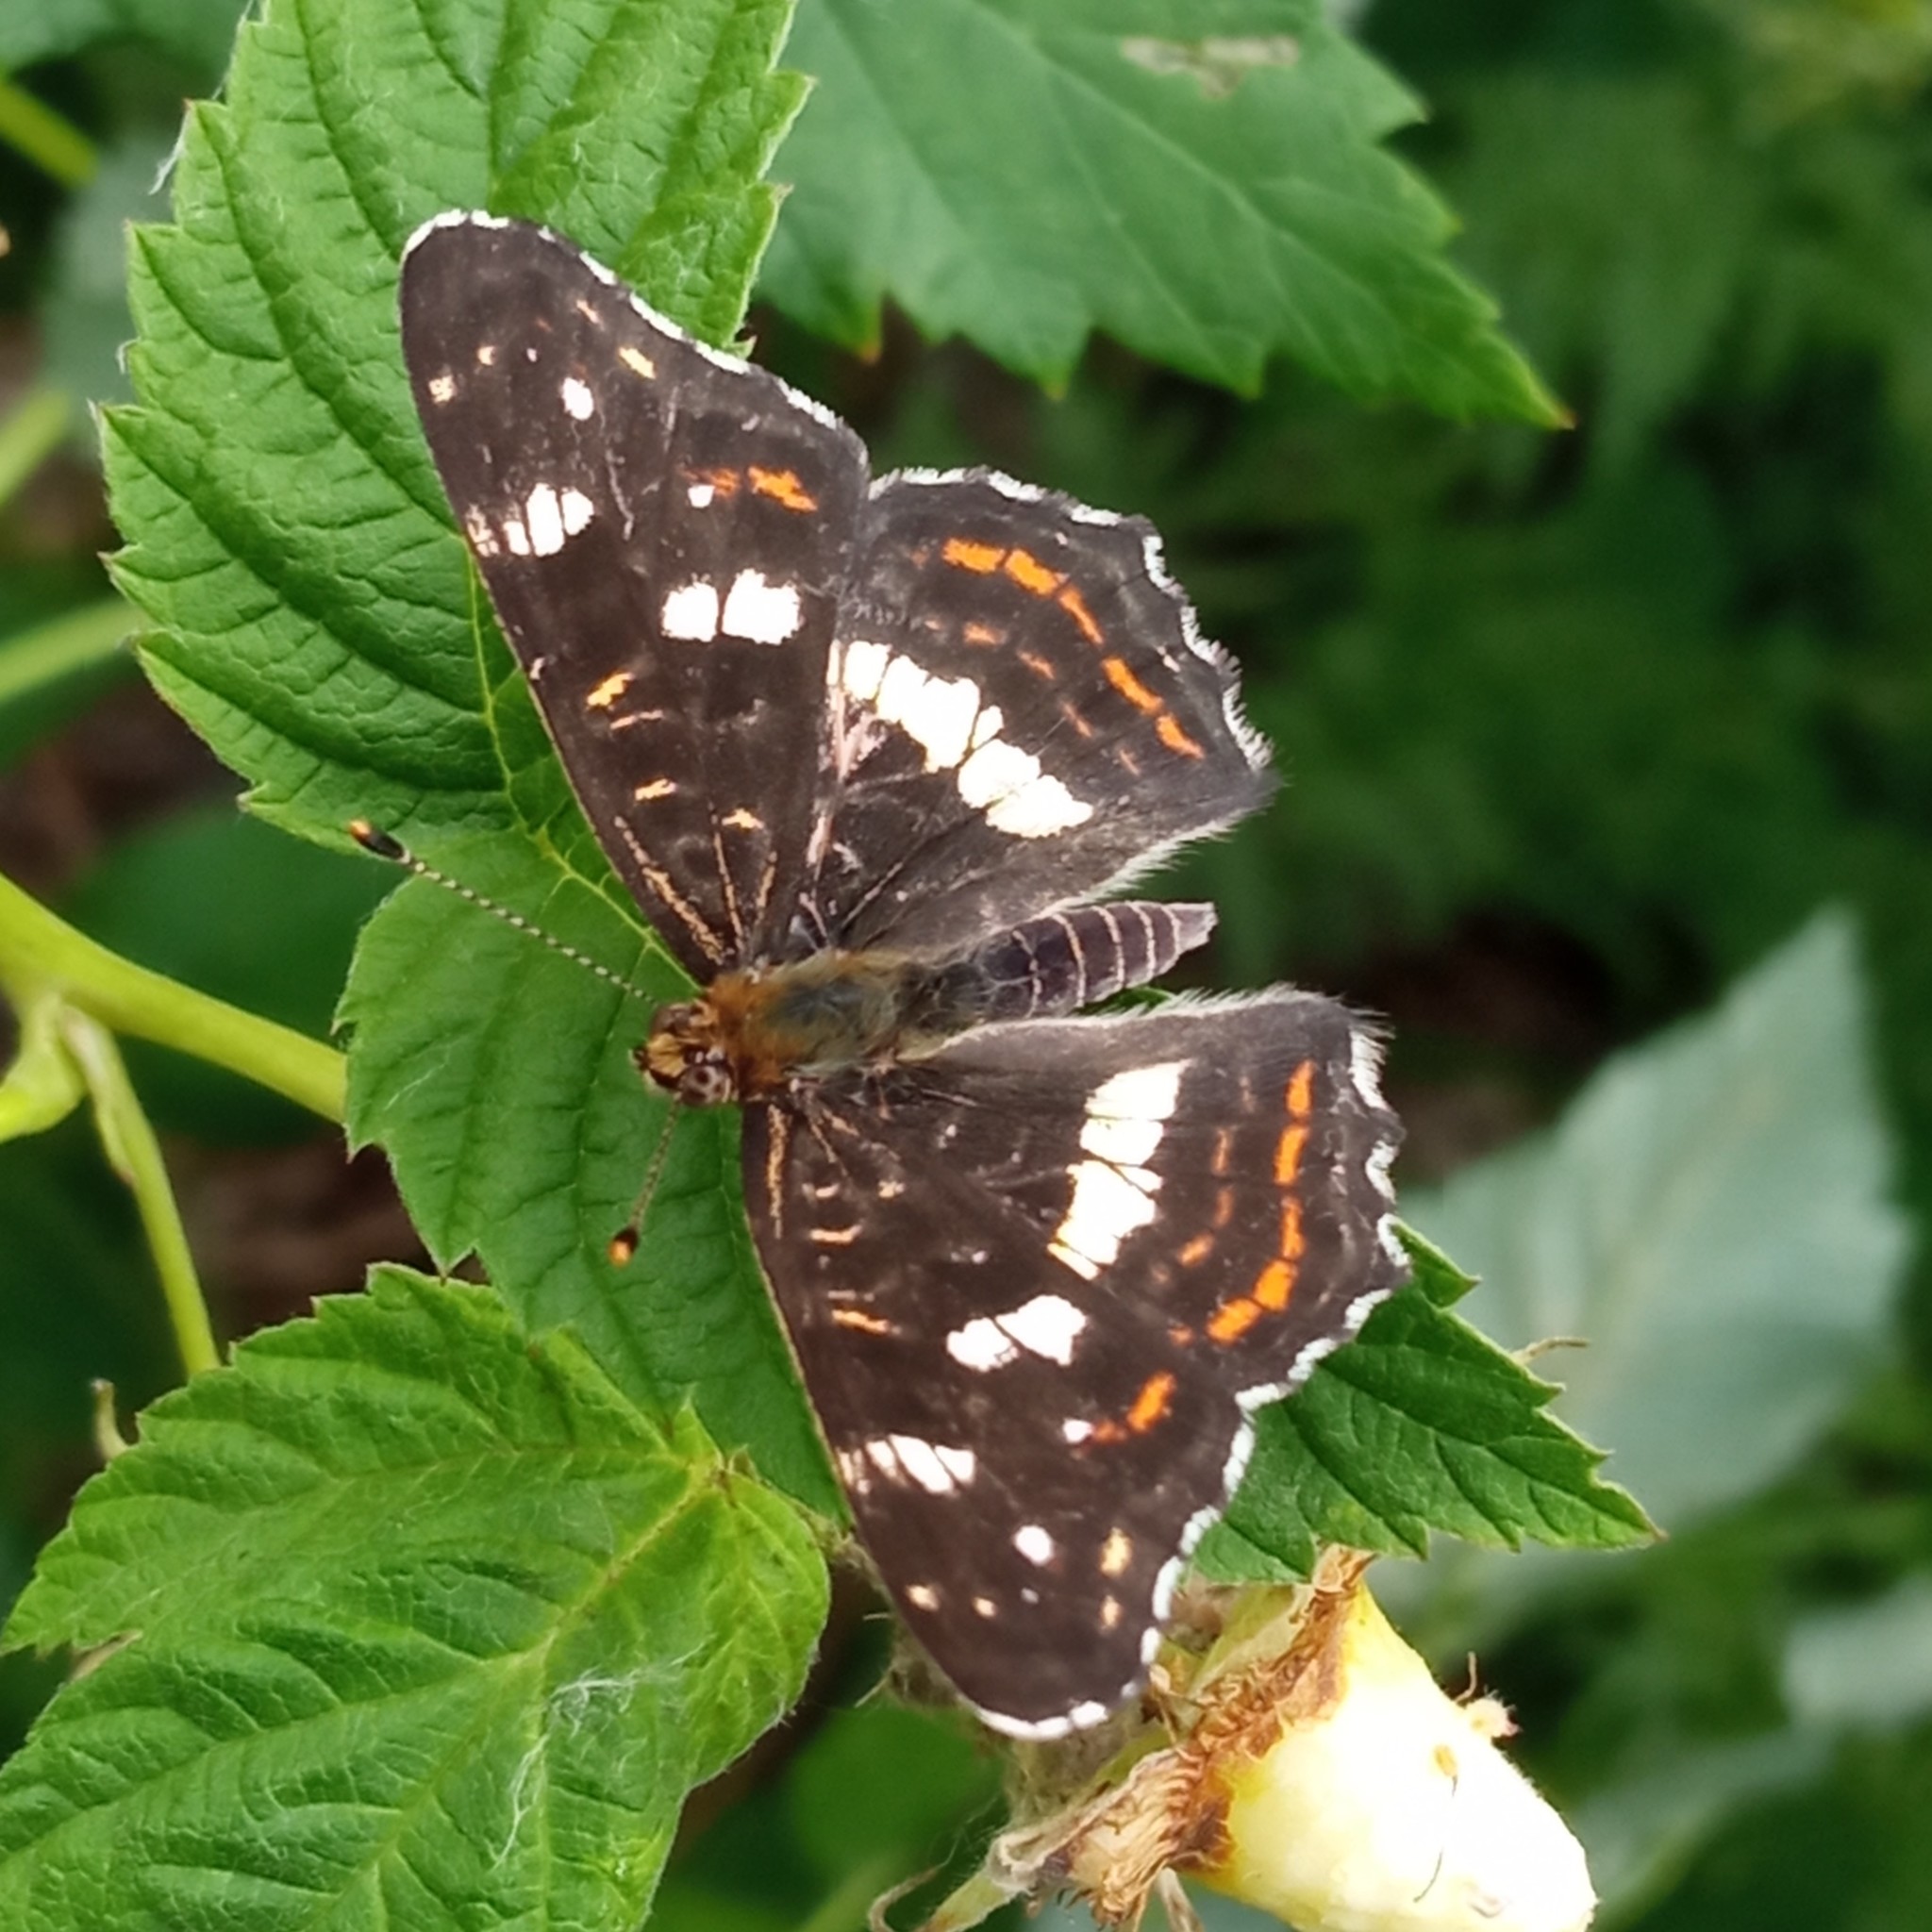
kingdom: Animalia
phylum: Arthropoda
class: Insecta
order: Lepidoptera
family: Nymphalidae
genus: Araschnia
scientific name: Araschnia levana
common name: Map butterfly
